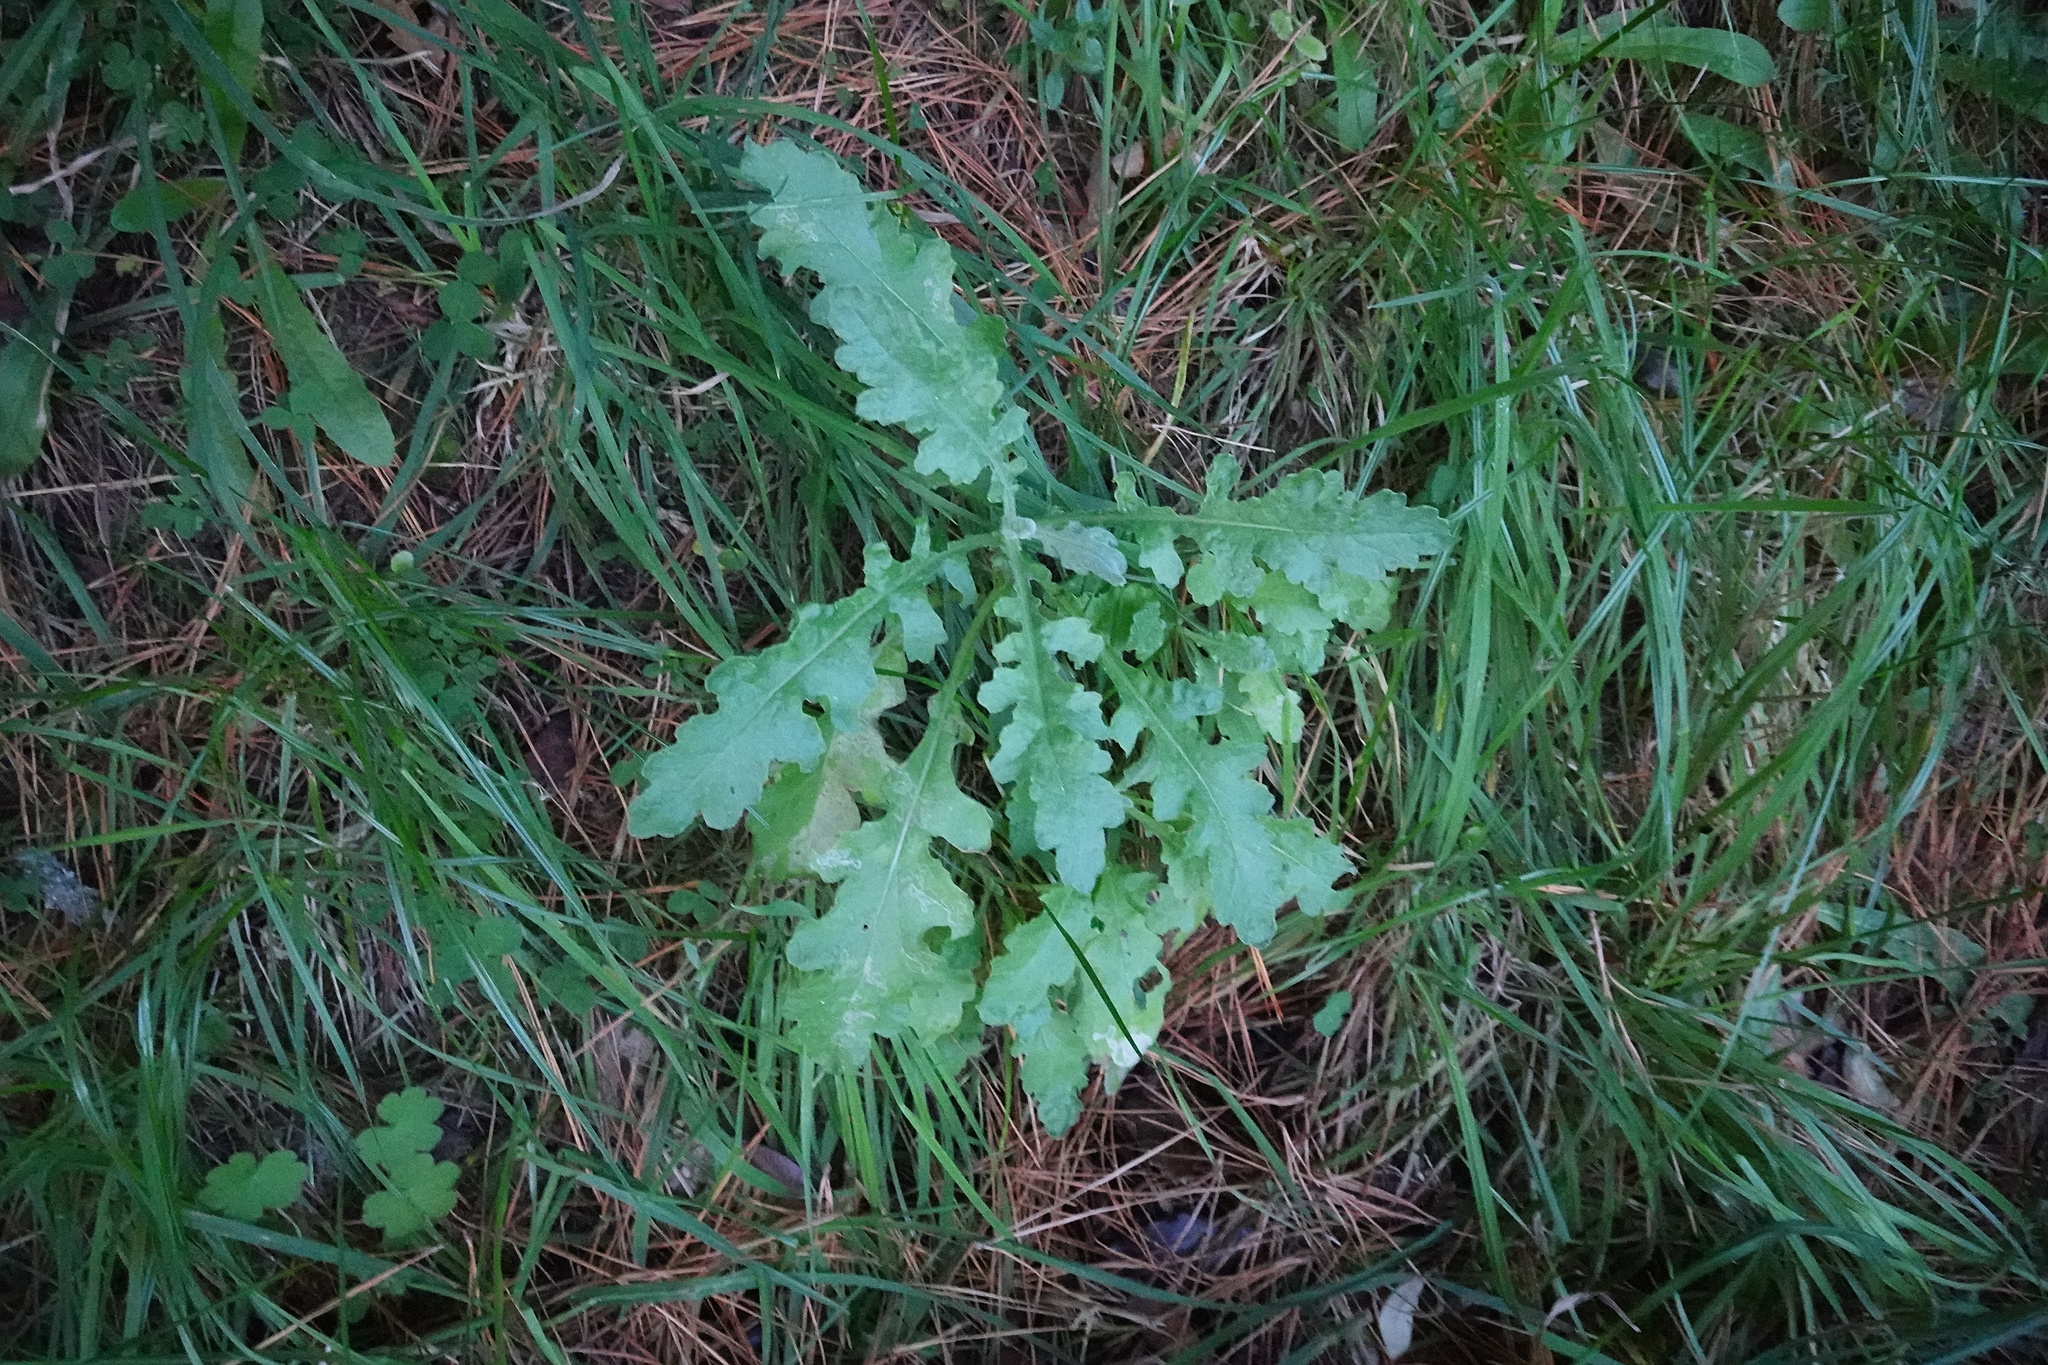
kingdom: Plantae
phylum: Tracheophyta
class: Magnoliopsida
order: Asterales
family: Asteraceae
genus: Senecio
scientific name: Senecio glomeratus
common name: Cutleaf burnweed
